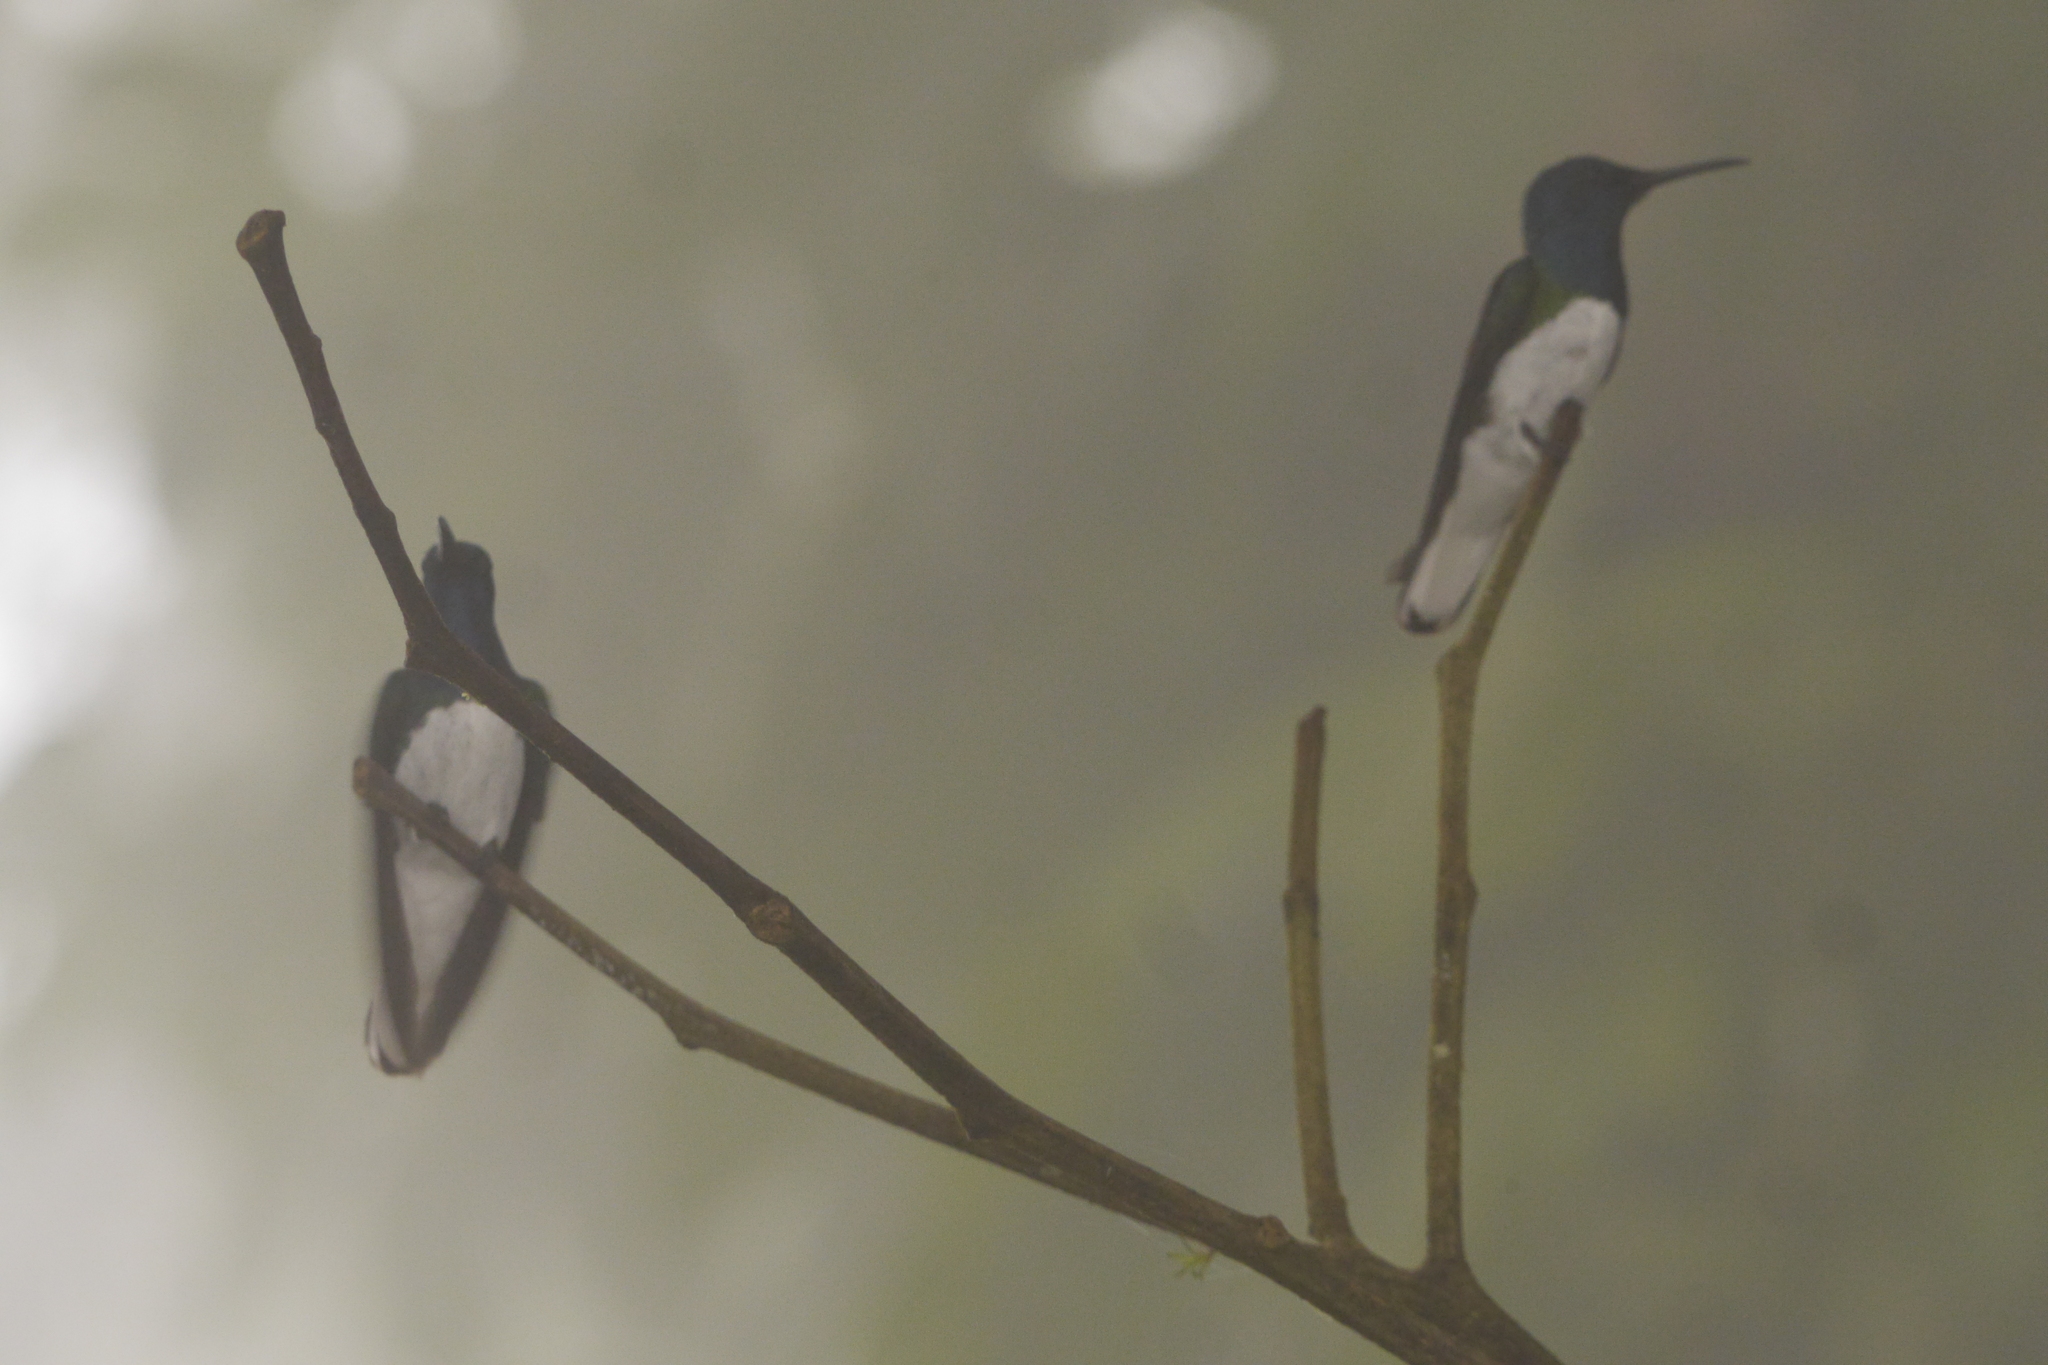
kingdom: Animalia
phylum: Chordata
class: Aves
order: Apodiformes
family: Trochilidae
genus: Florisuga
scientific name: Florisuga mellivora
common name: White-necked jacobin
